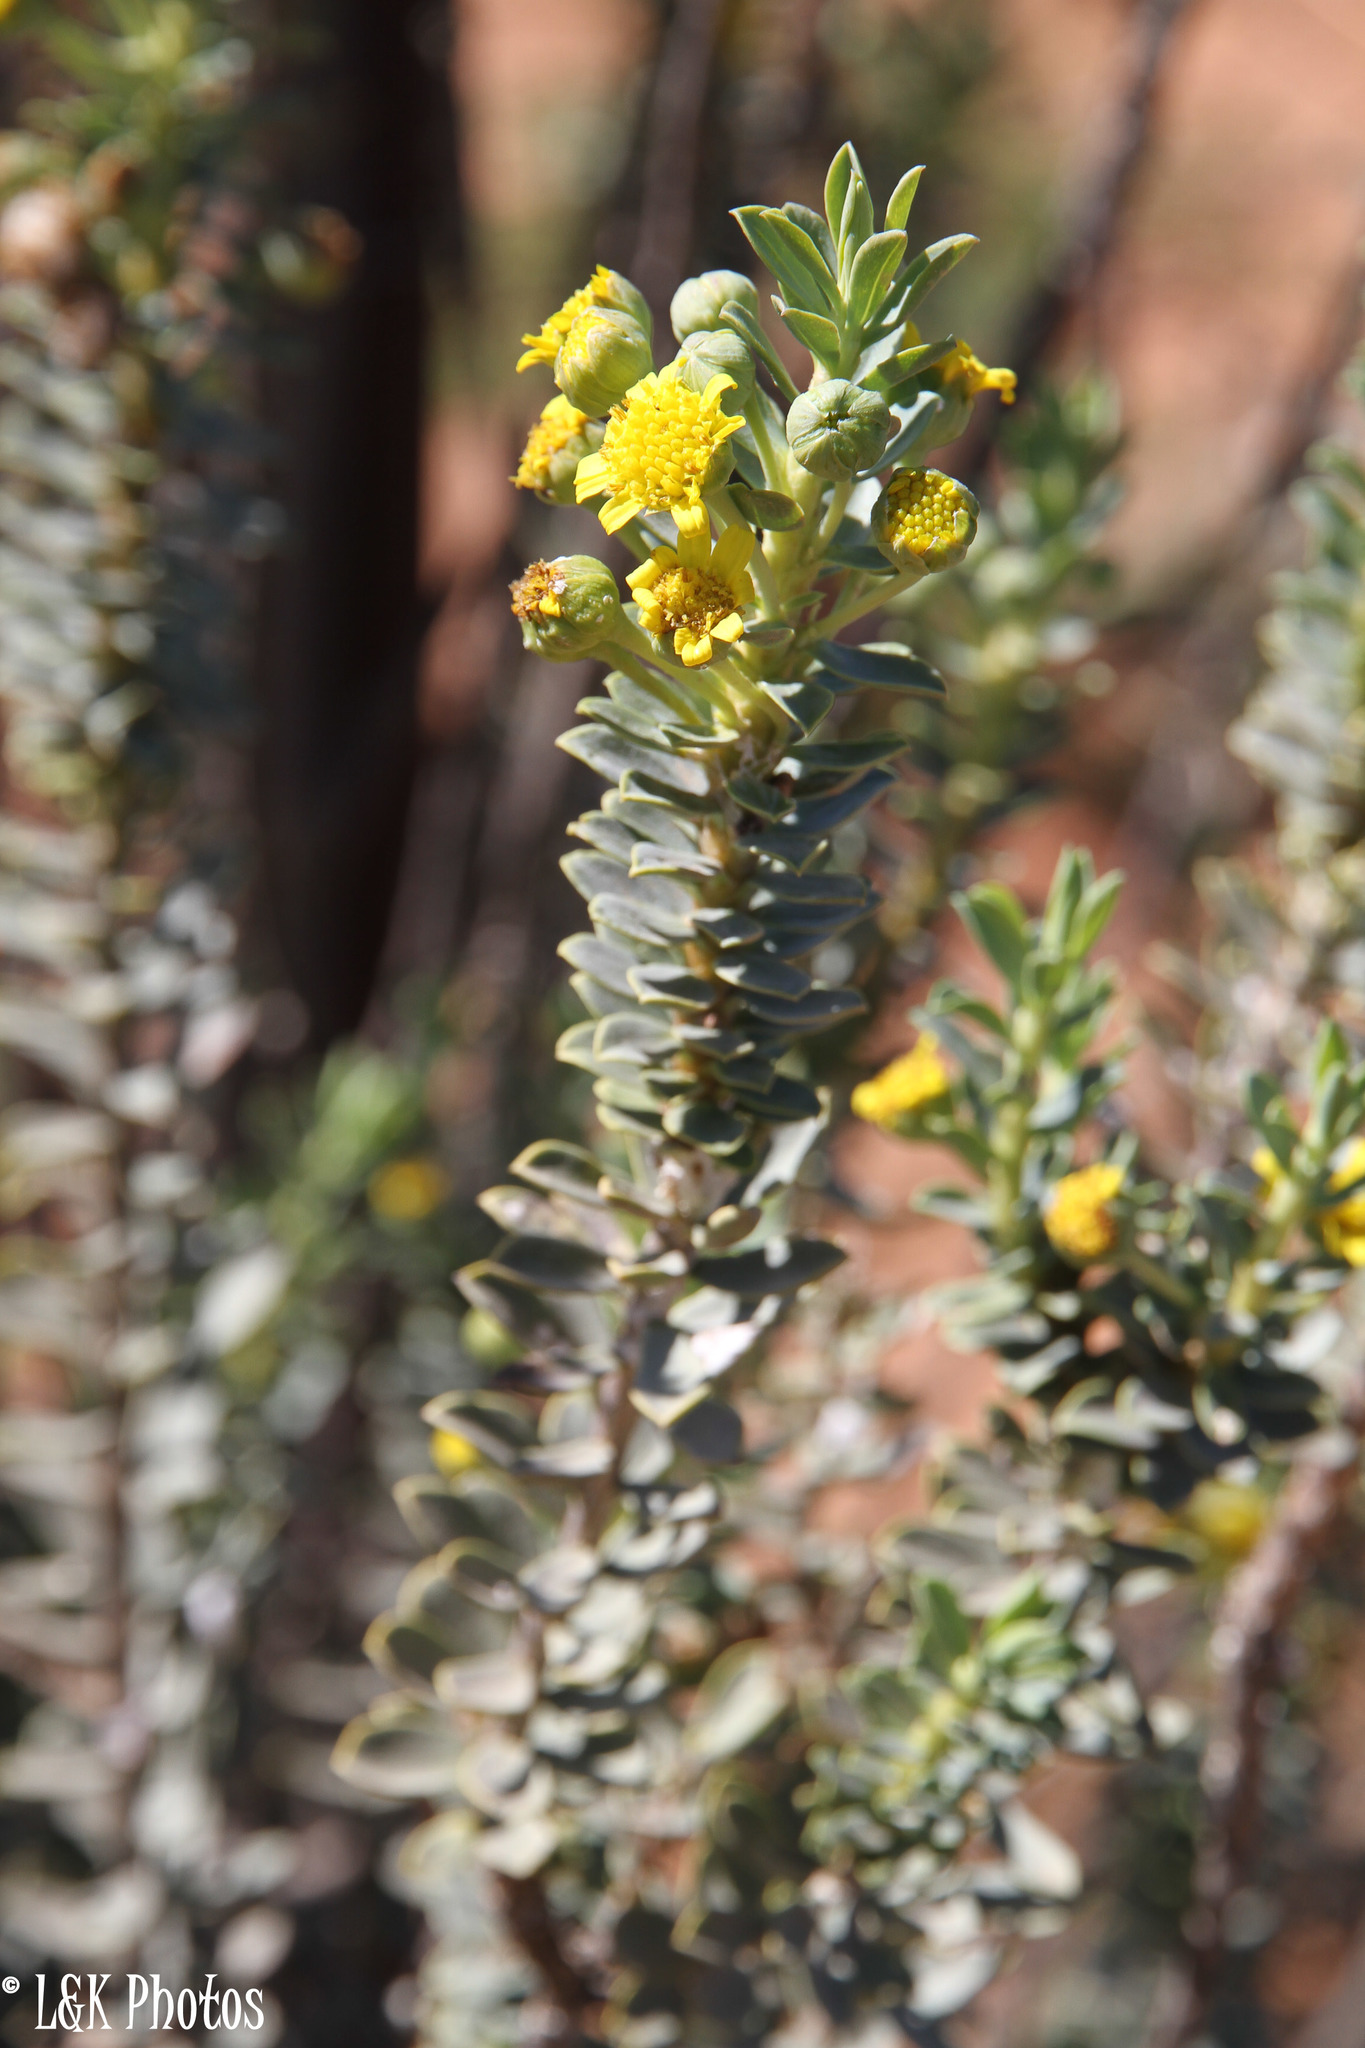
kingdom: Plantae
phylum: Tracheophyta
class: Magnoliopsida
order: Asterales
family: Asteraceae
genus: Euryops
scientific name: Euryops lateriflorus
